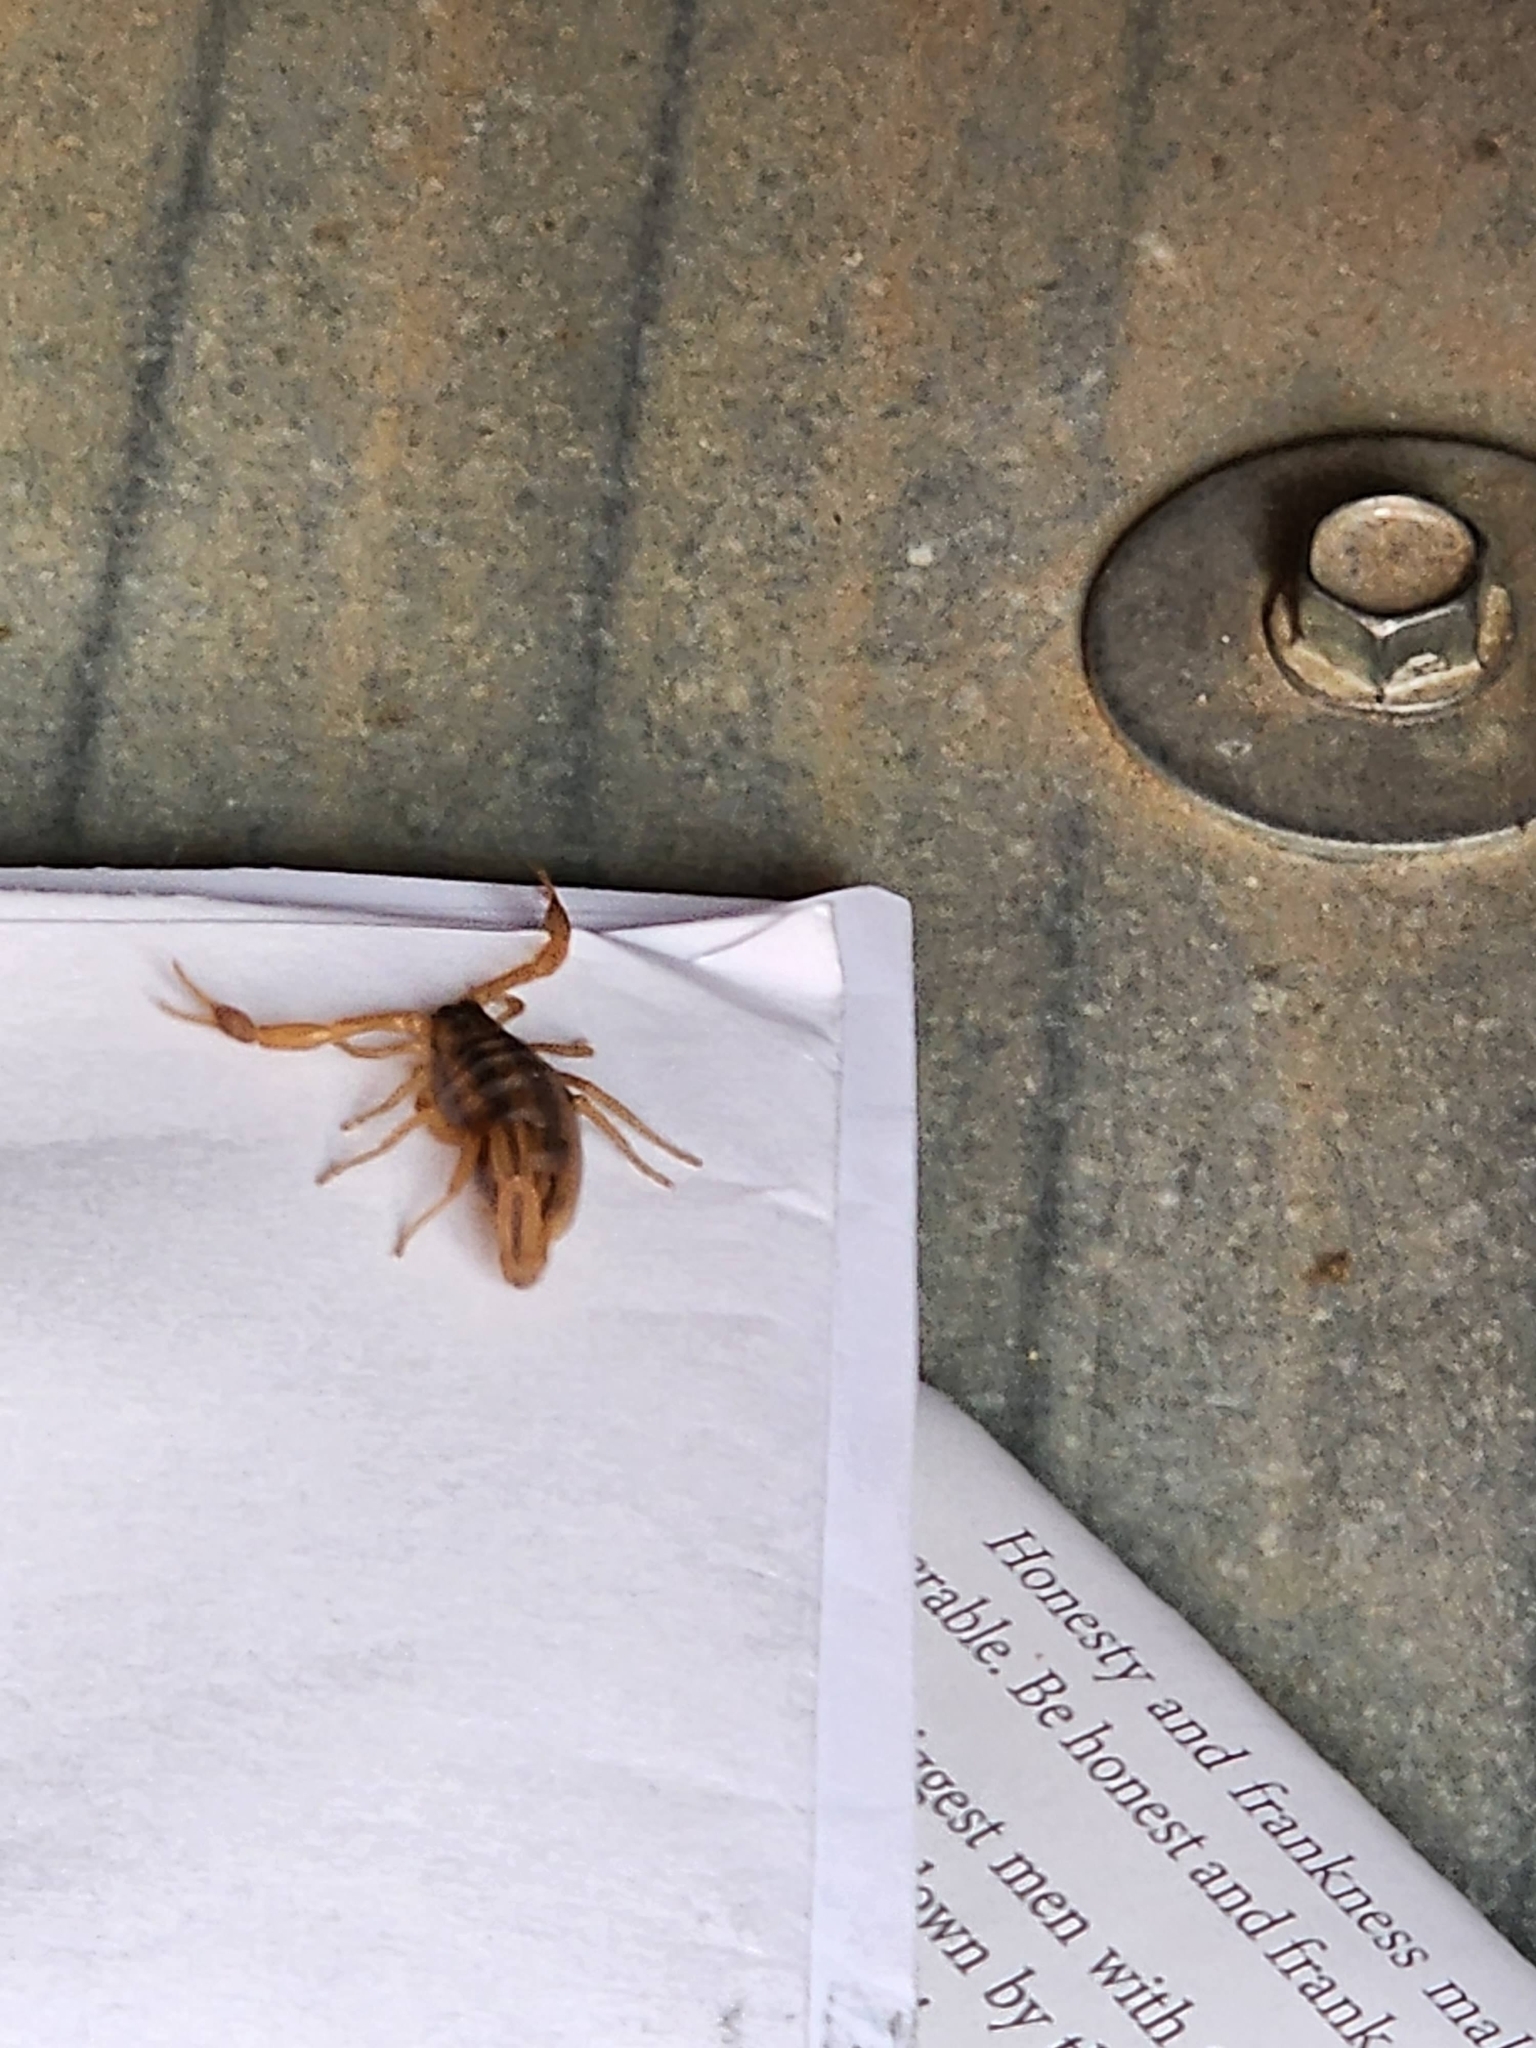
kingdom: Animalia
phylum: Arthropoda
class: Arachnida
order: Scorpiones
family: Buthidae
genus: Centruroides
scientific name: Centruroides vittatus
